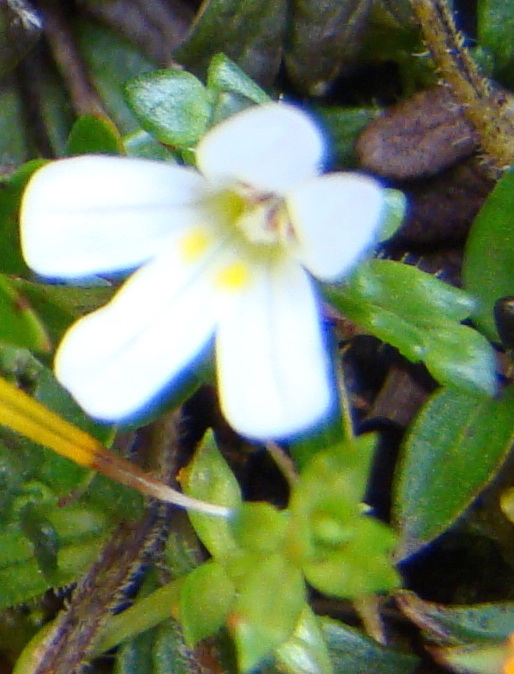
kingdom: Plantae
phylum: Tracheophyta
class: Magnoliopsida
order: Lamiales
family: Orobanchaceae
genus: Euphrasia
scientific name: Euphrasia australis
